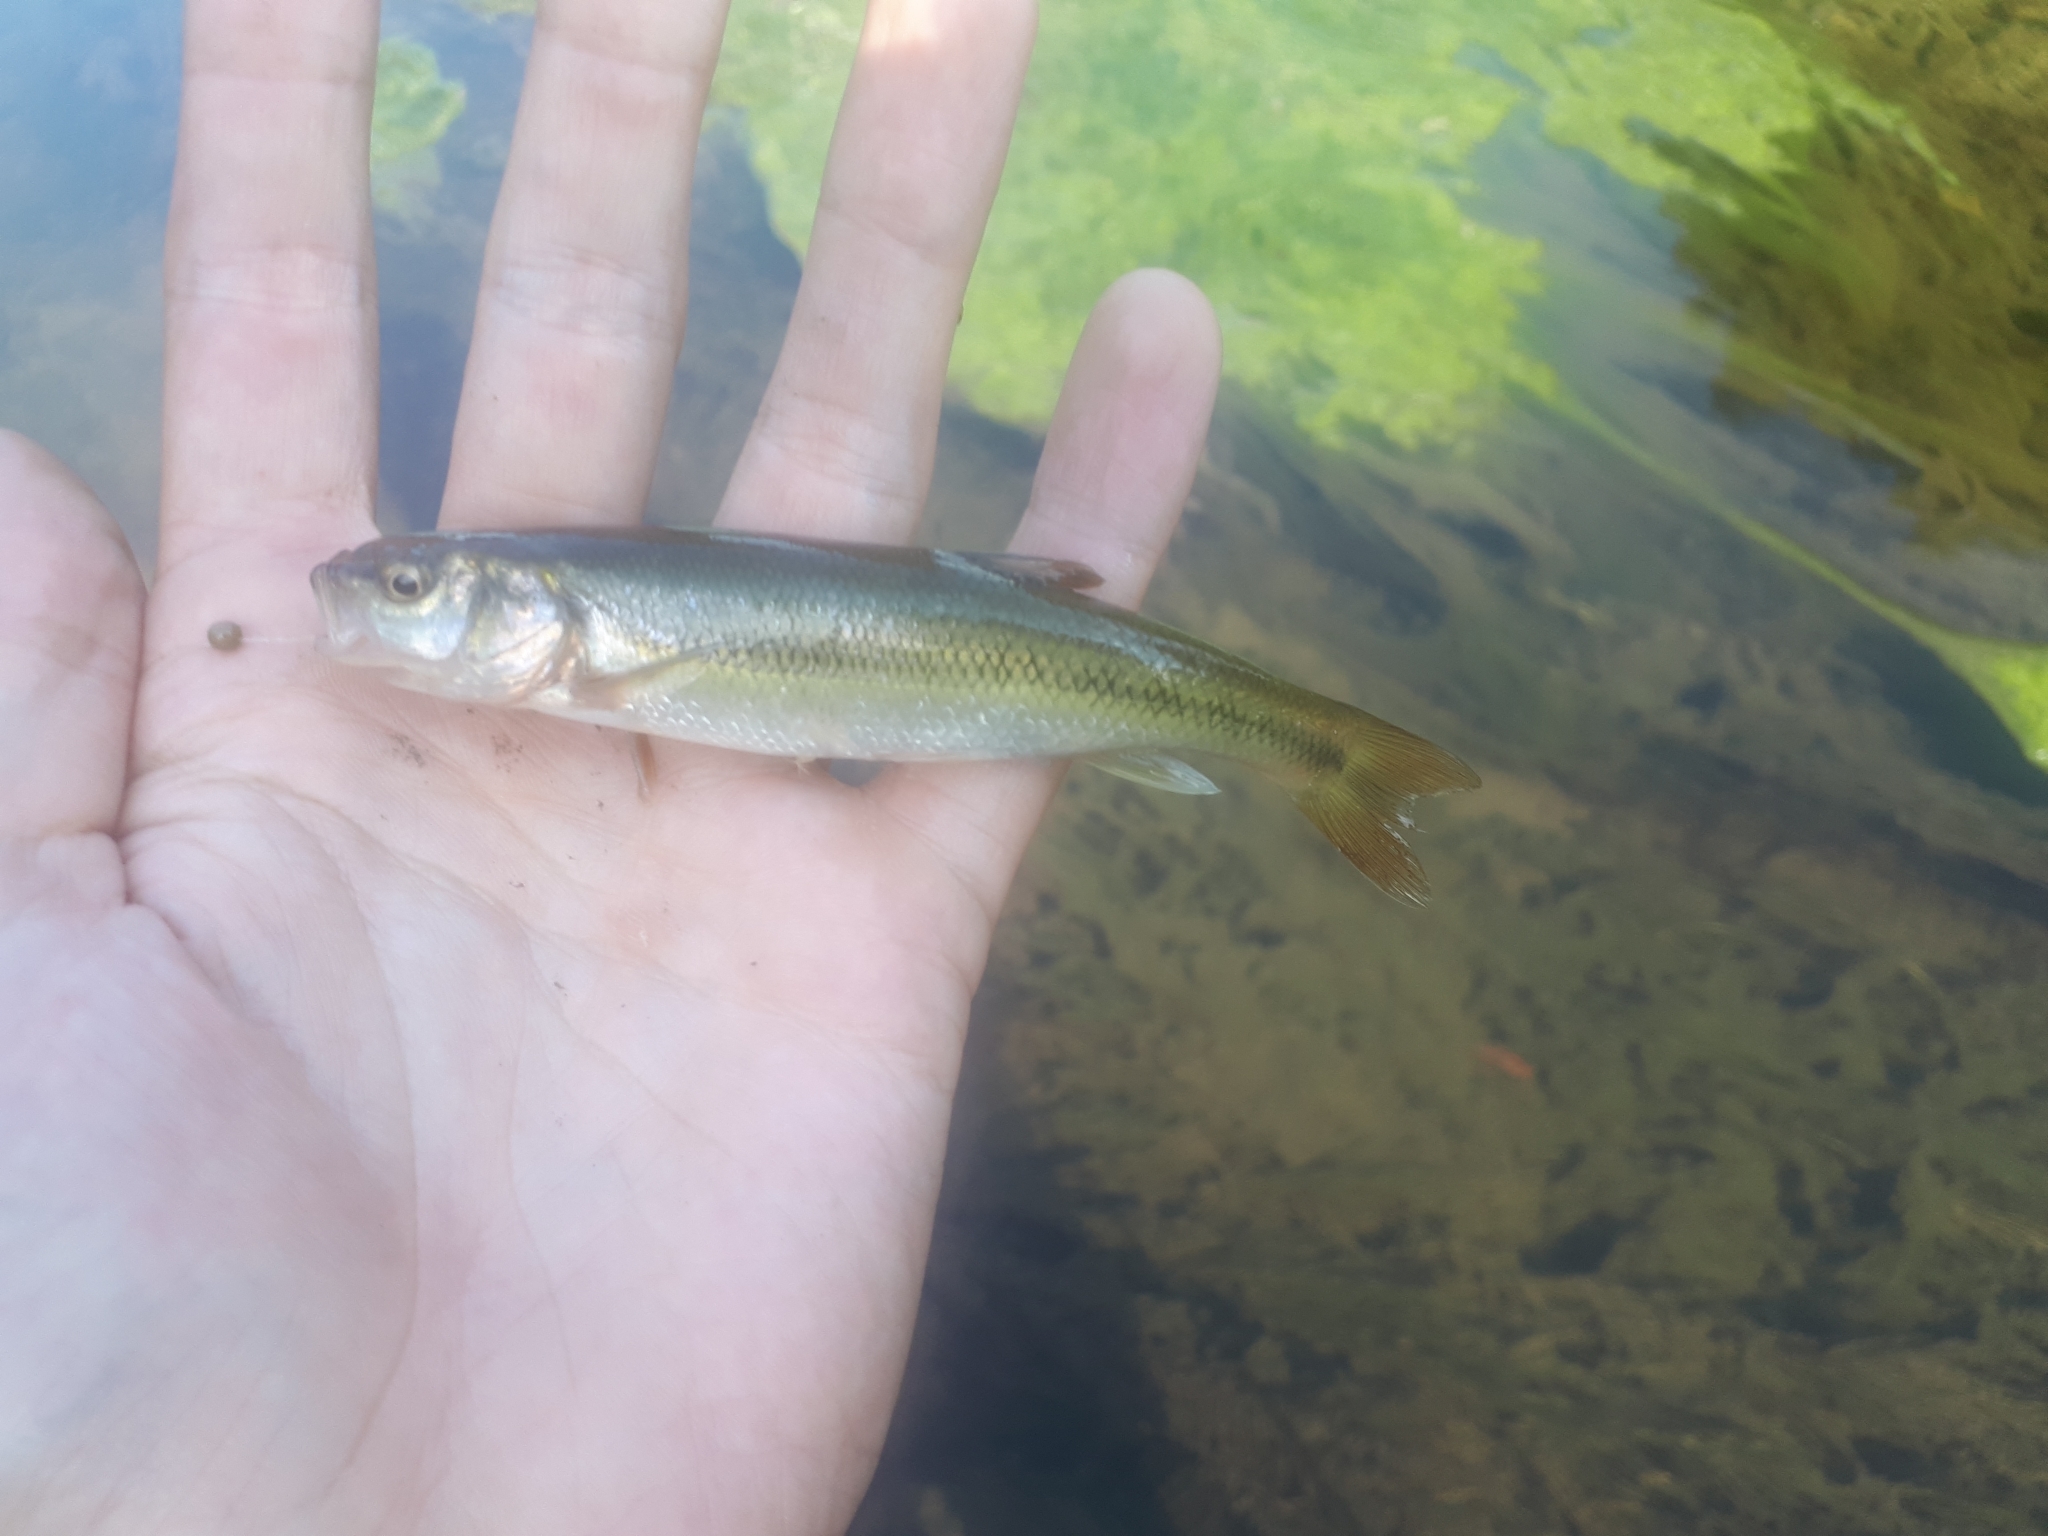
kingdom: Animalia
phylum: Chordata
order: Cypriniformes
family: Cyprinidae
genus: Semotilus
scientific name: Semotilus atromaculatus
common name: Creek chub
